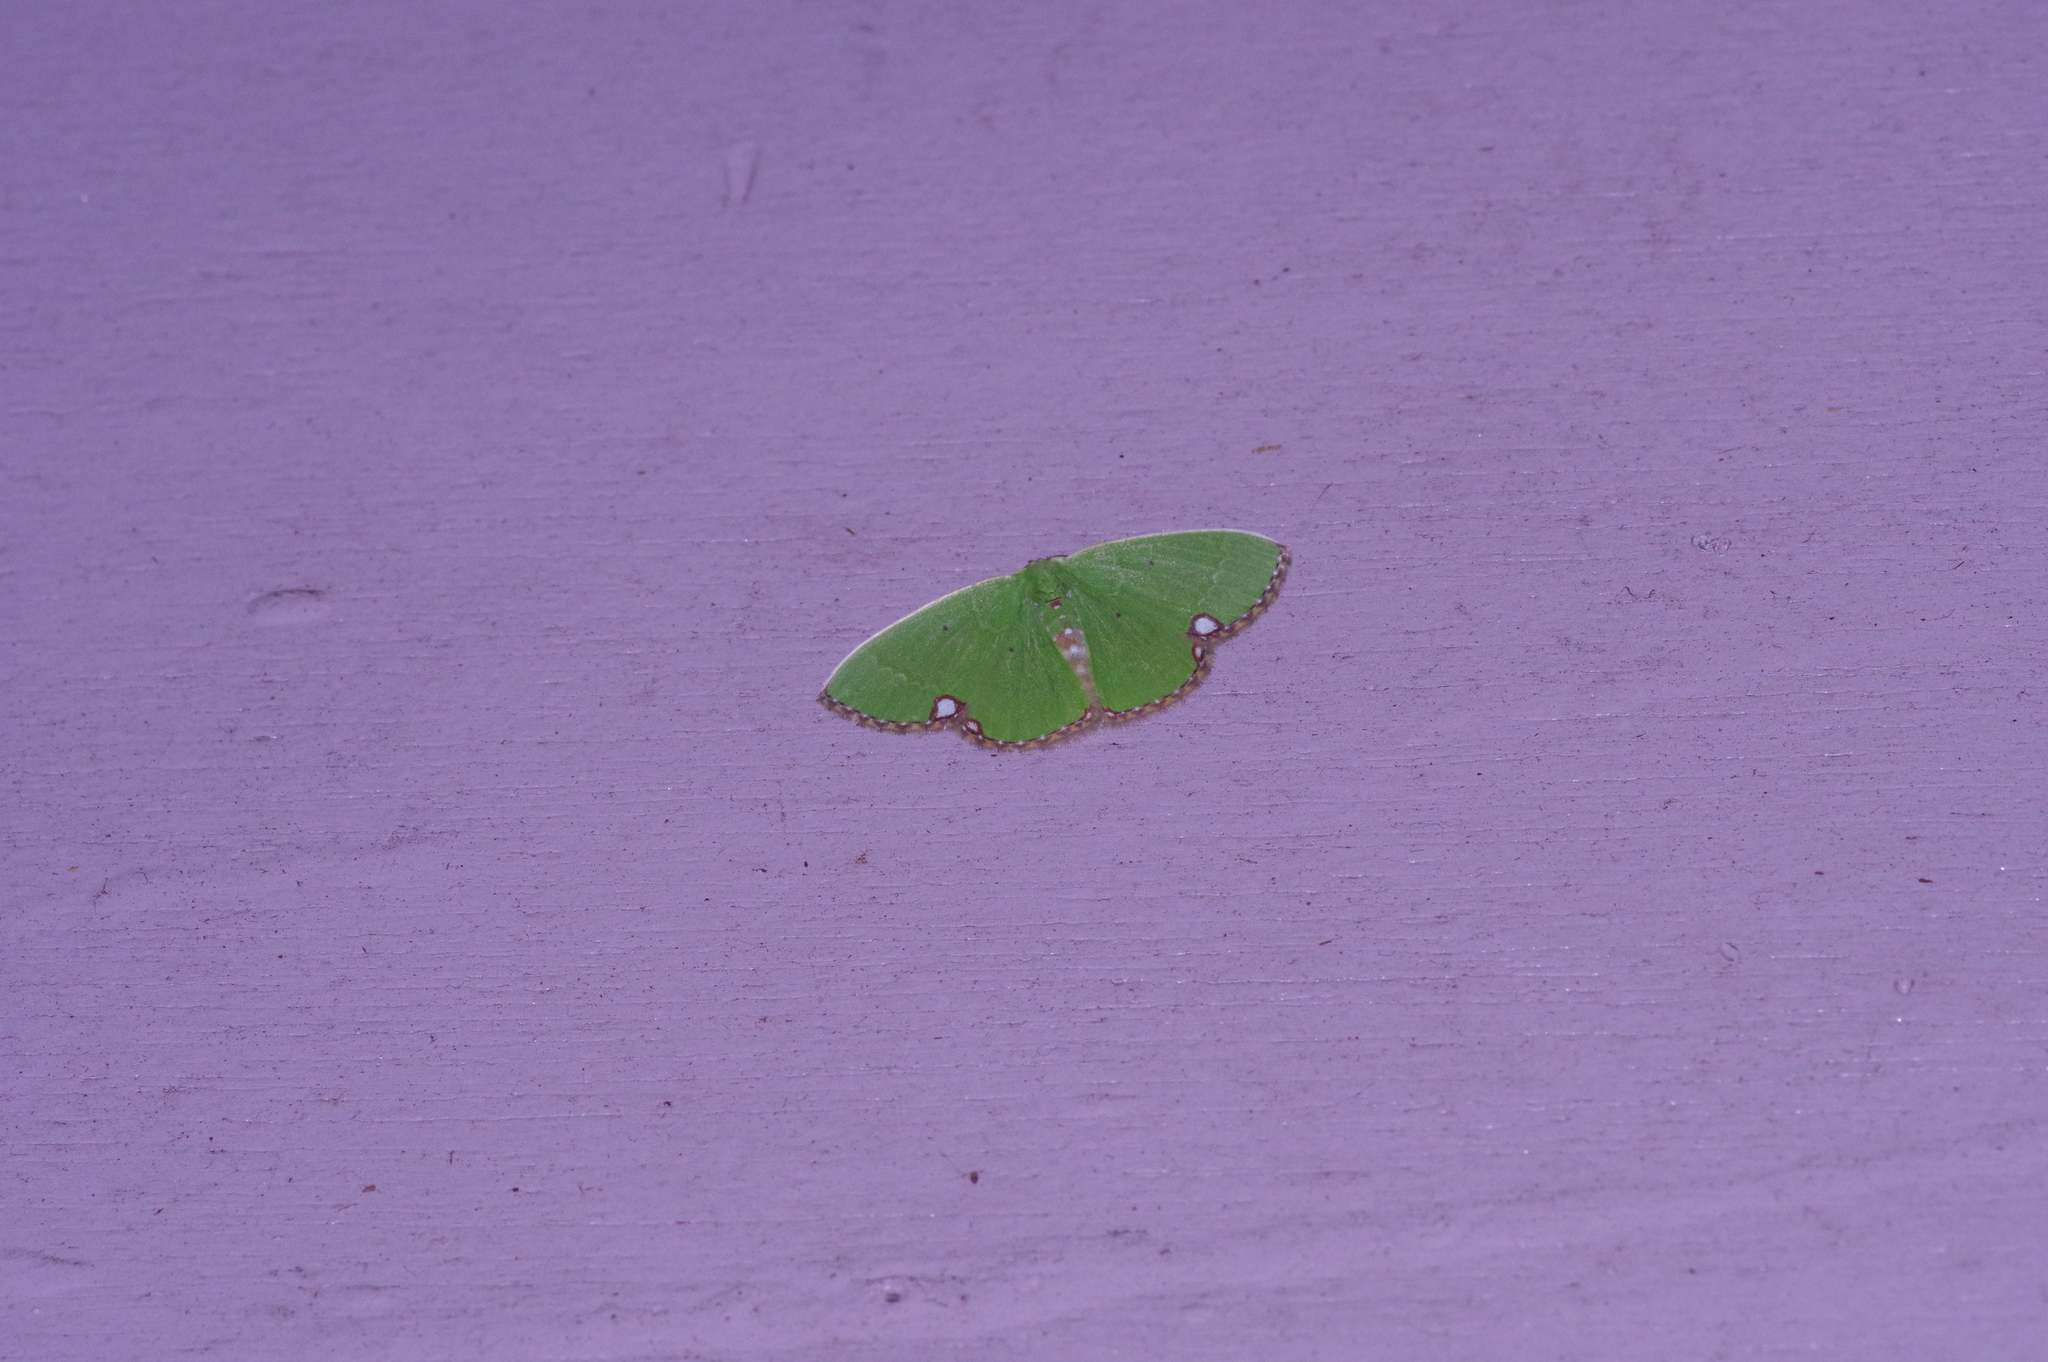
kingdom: Animalia
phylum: Arthropoda
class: Insecta
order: Lepidoptera
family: Geometridae
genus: Comibaena
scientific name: Comibaena procumbaria
